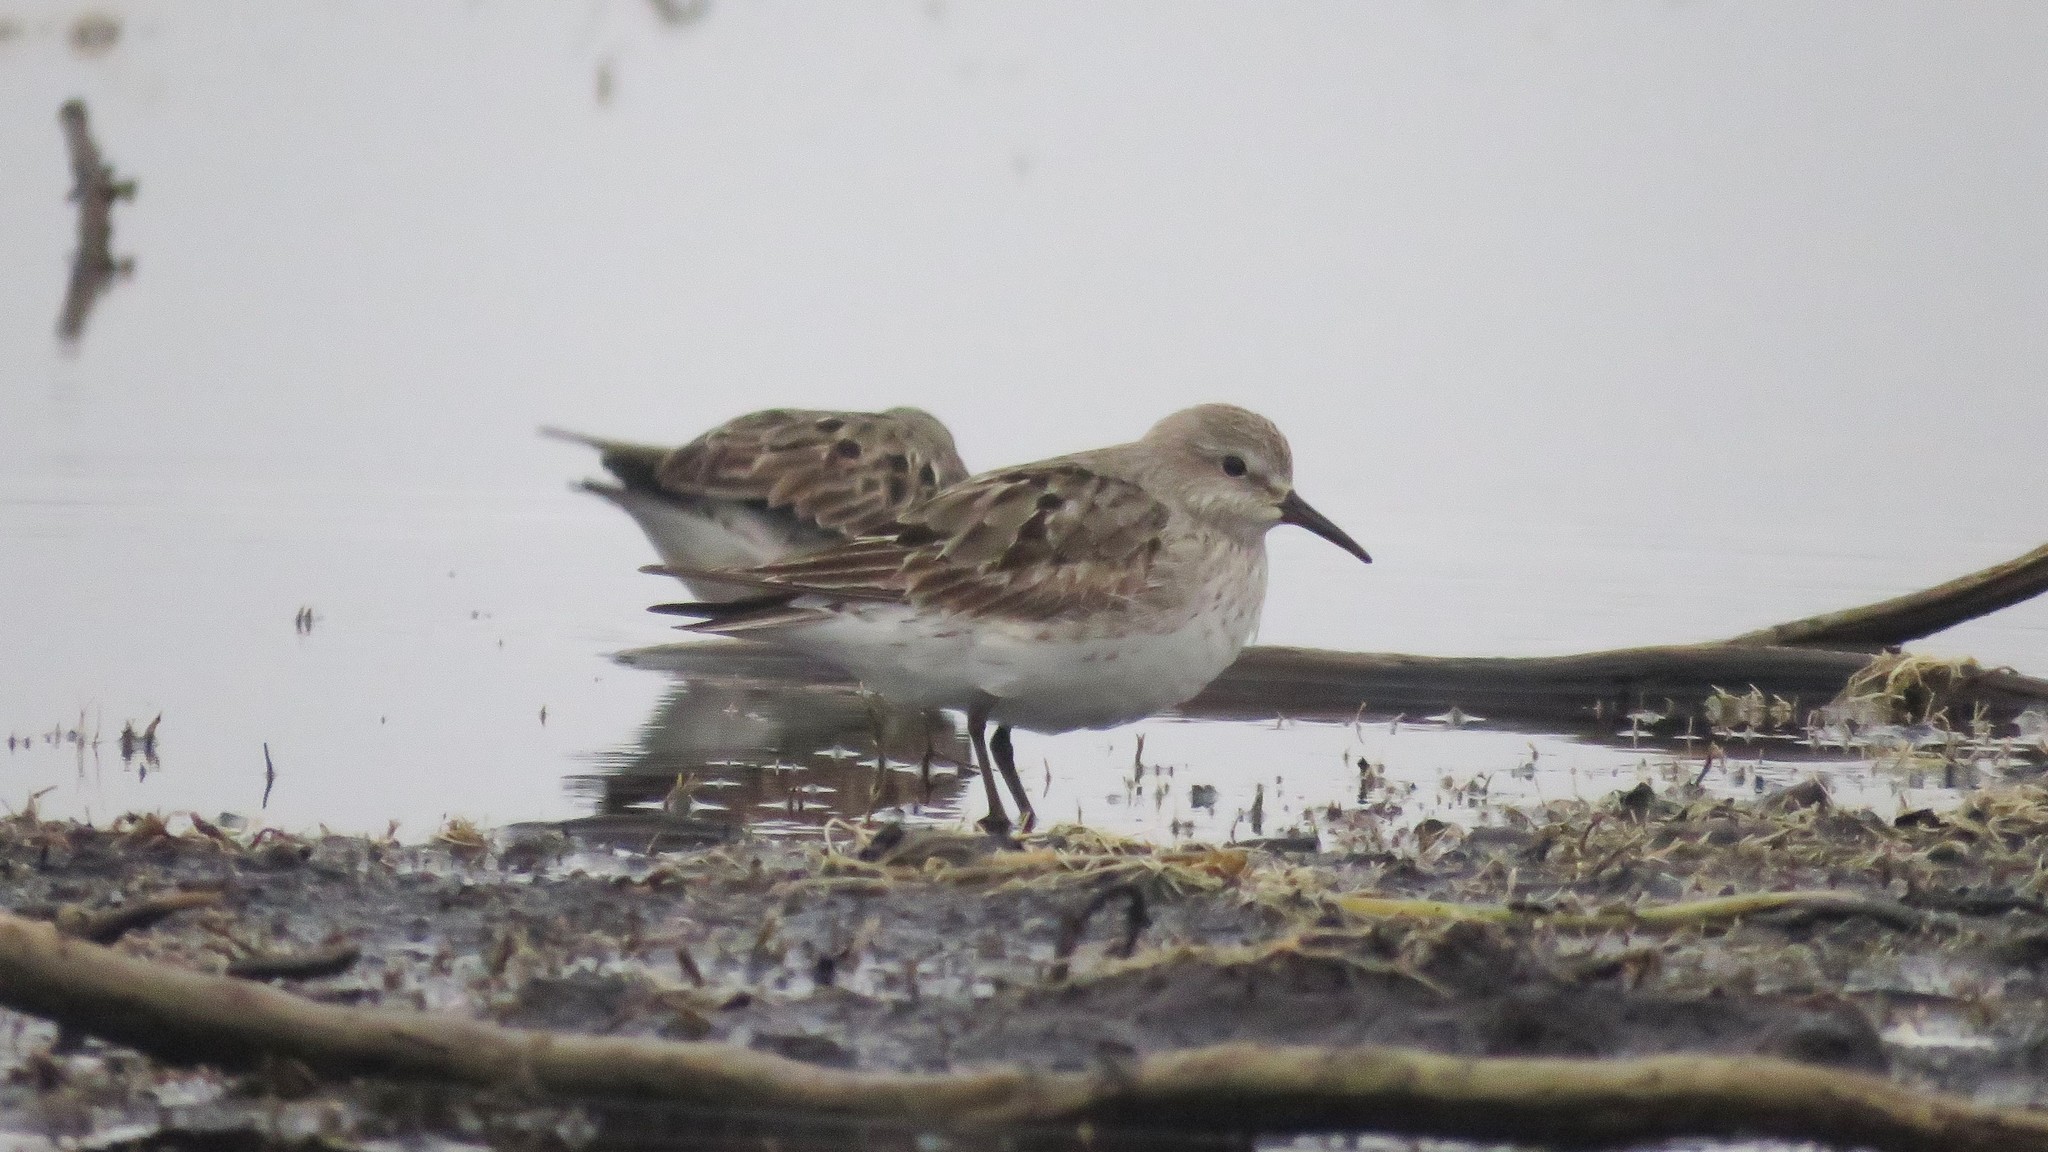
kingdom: Animalia
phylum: Chordata
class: Aves
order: Charadriiformes
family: Scolopacidae
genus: Calidris
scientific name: Calidris fuscicollis
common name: White-rumped sandpiper
